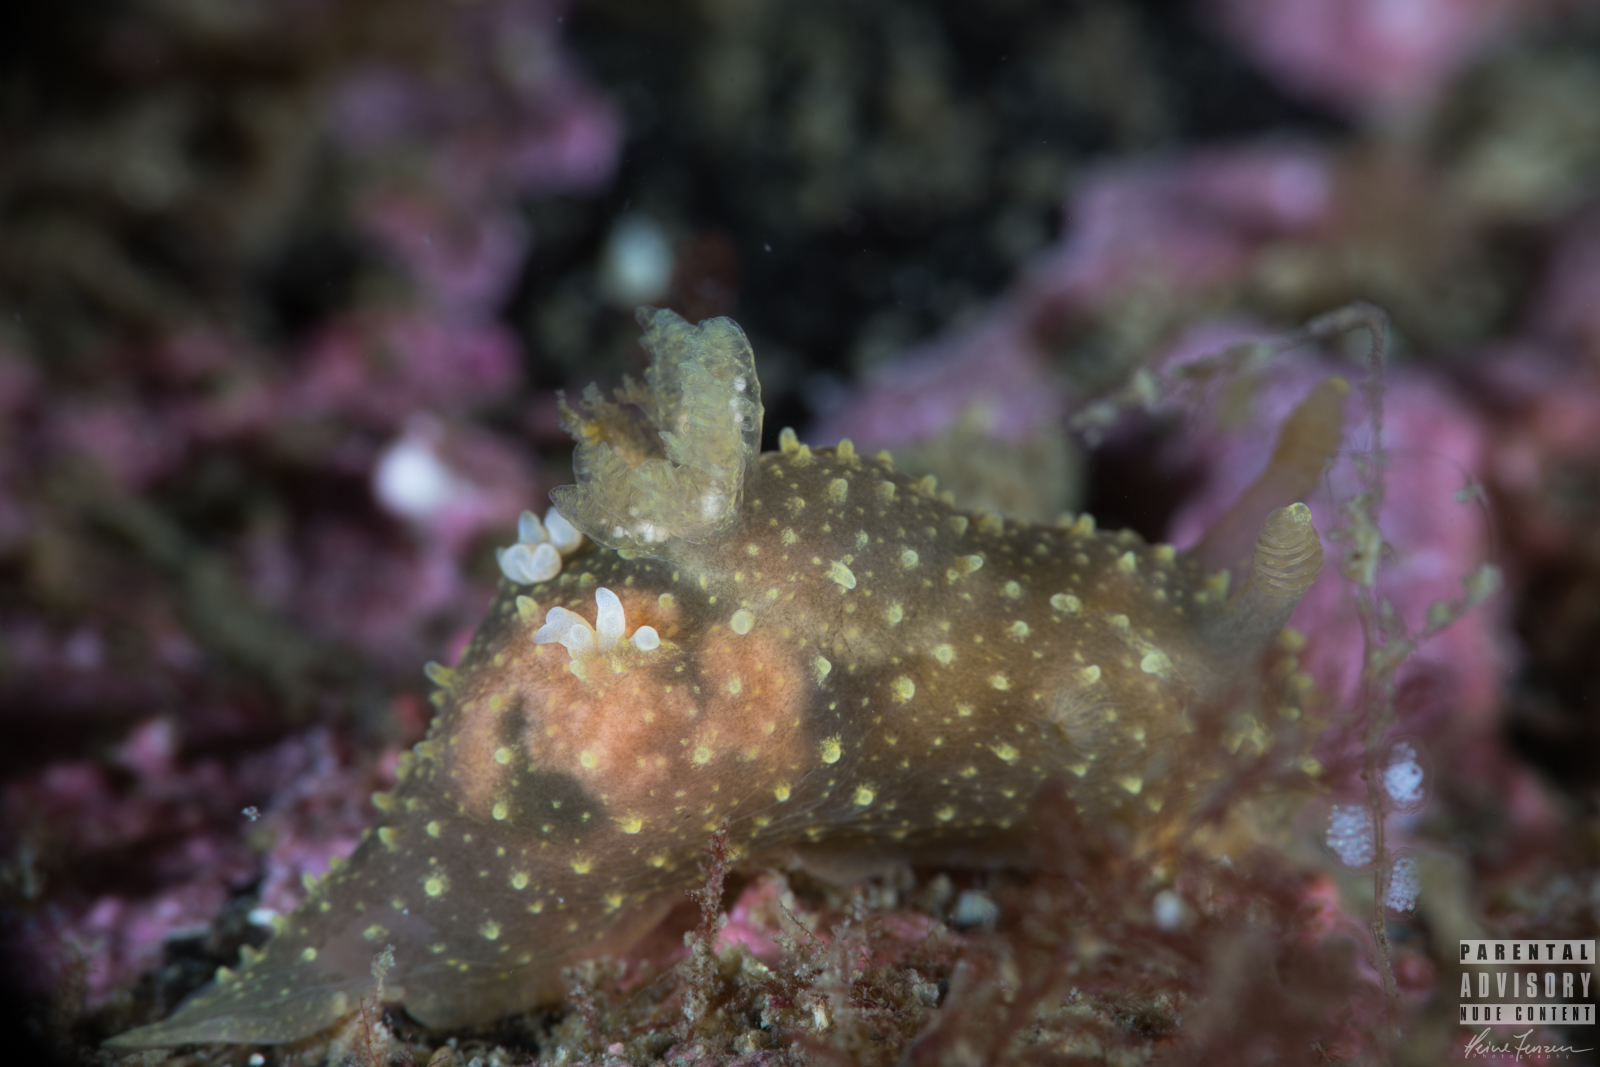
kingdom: Animalia
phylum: Mollusca
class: Gastropoda
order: Nudibranchia
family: Polyceridae
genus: Palio
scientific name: Palio dubia
